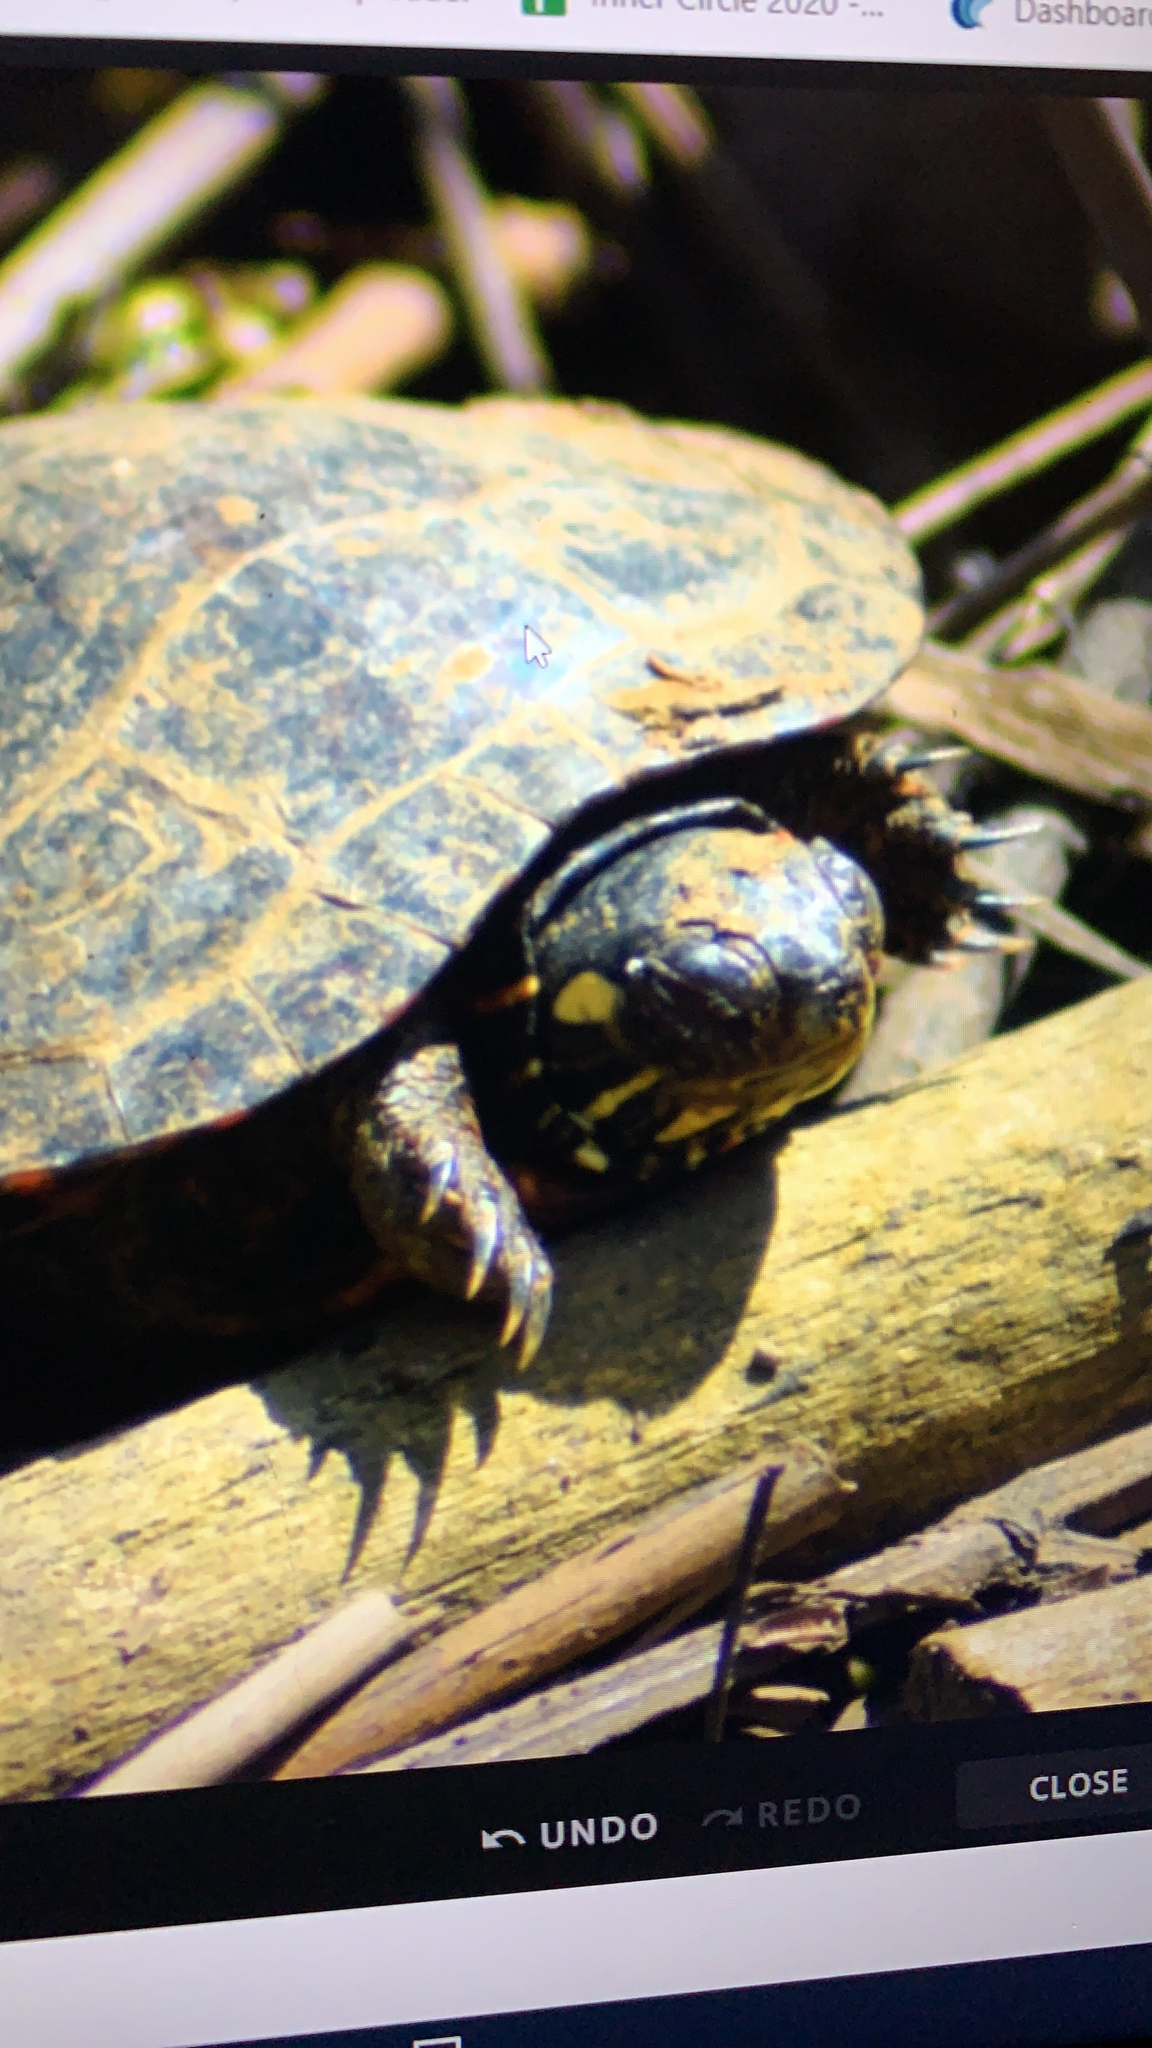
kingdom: Animalia
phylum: Chordata
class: Testudines
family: Emydidae
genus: Chrysemys
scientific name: Chrysemys picta
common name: Painted turtle
